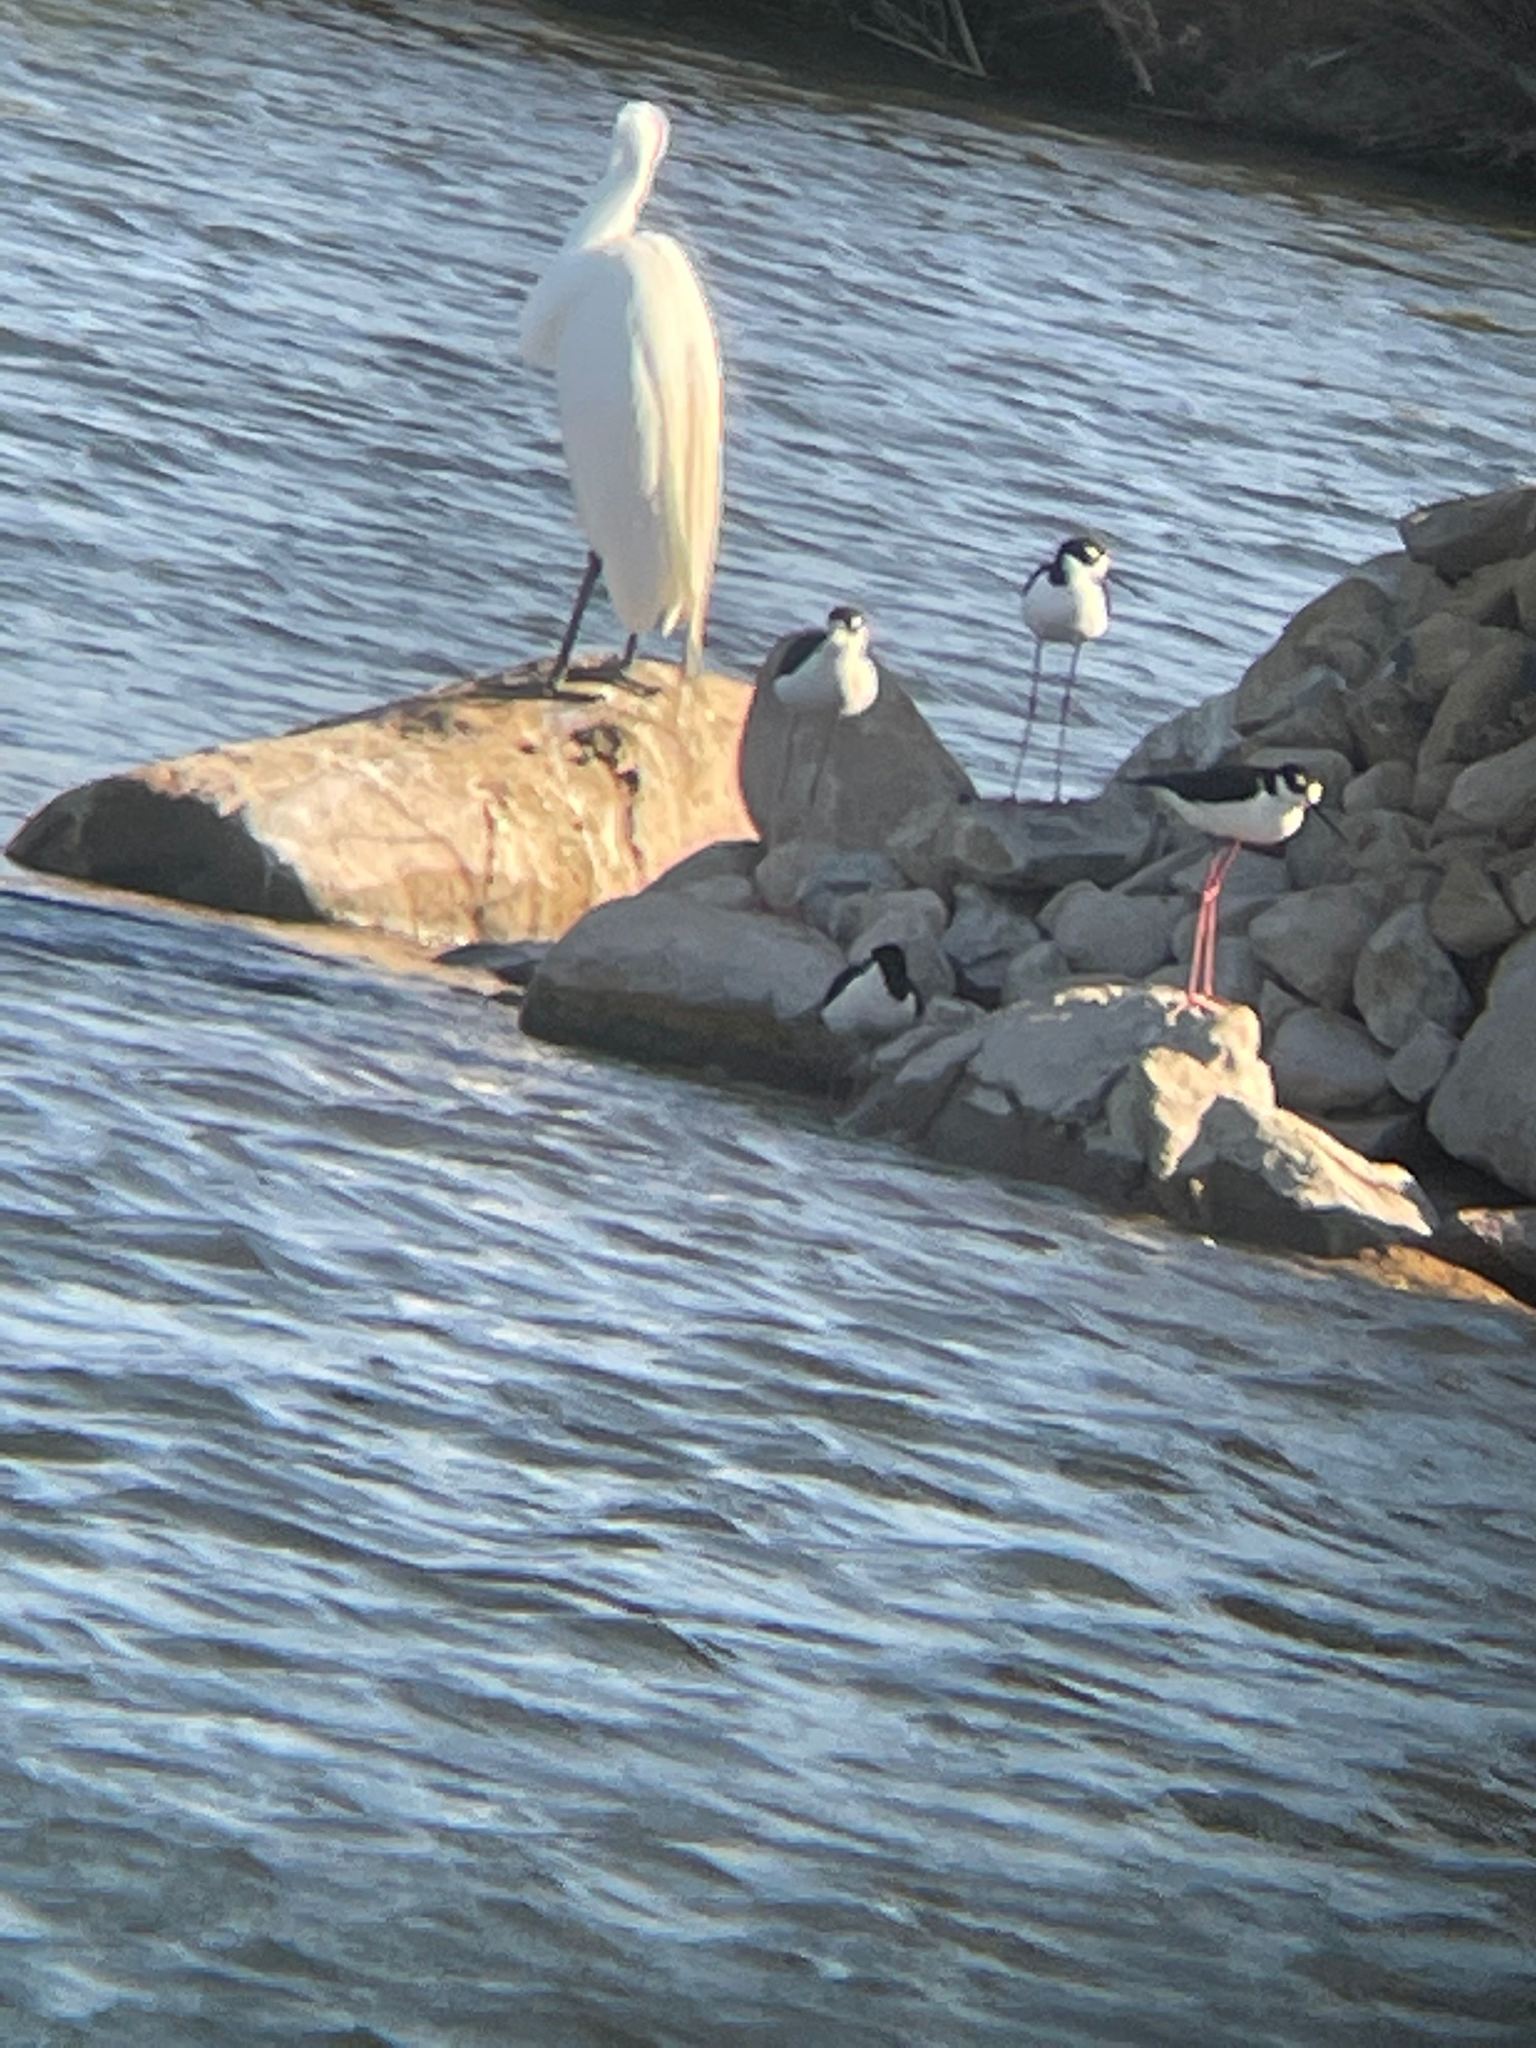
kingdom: Animalia
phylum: Chordata
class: Aves
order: Charadriiformes
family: Recurvirostridae
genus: Himantopus
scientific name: Himantopus mexicanus
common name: Black-necked stilt
